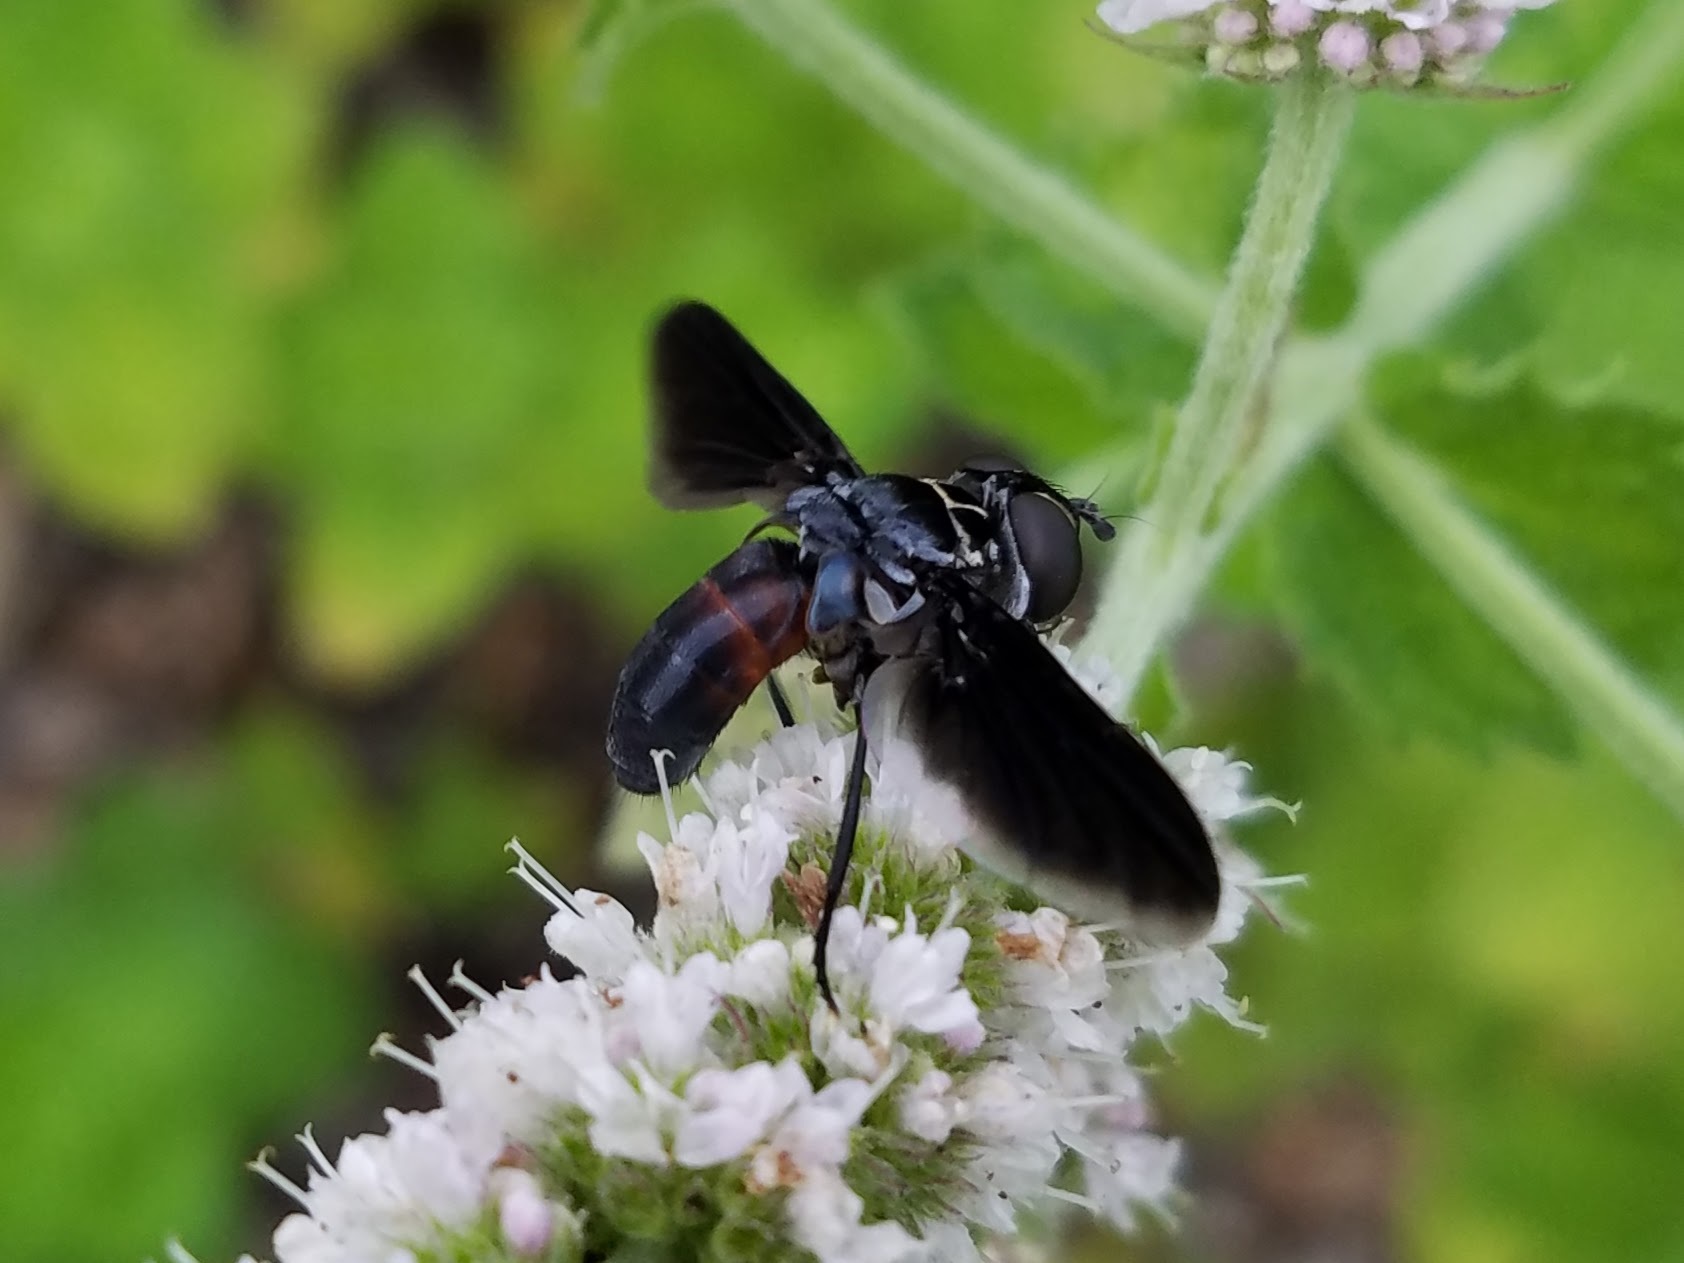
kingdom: Animalia
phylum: Arthropoda
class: Insecta
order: Diptera
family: Tachinidae
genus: Trichopoda
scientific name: Trichopoda lanipes
